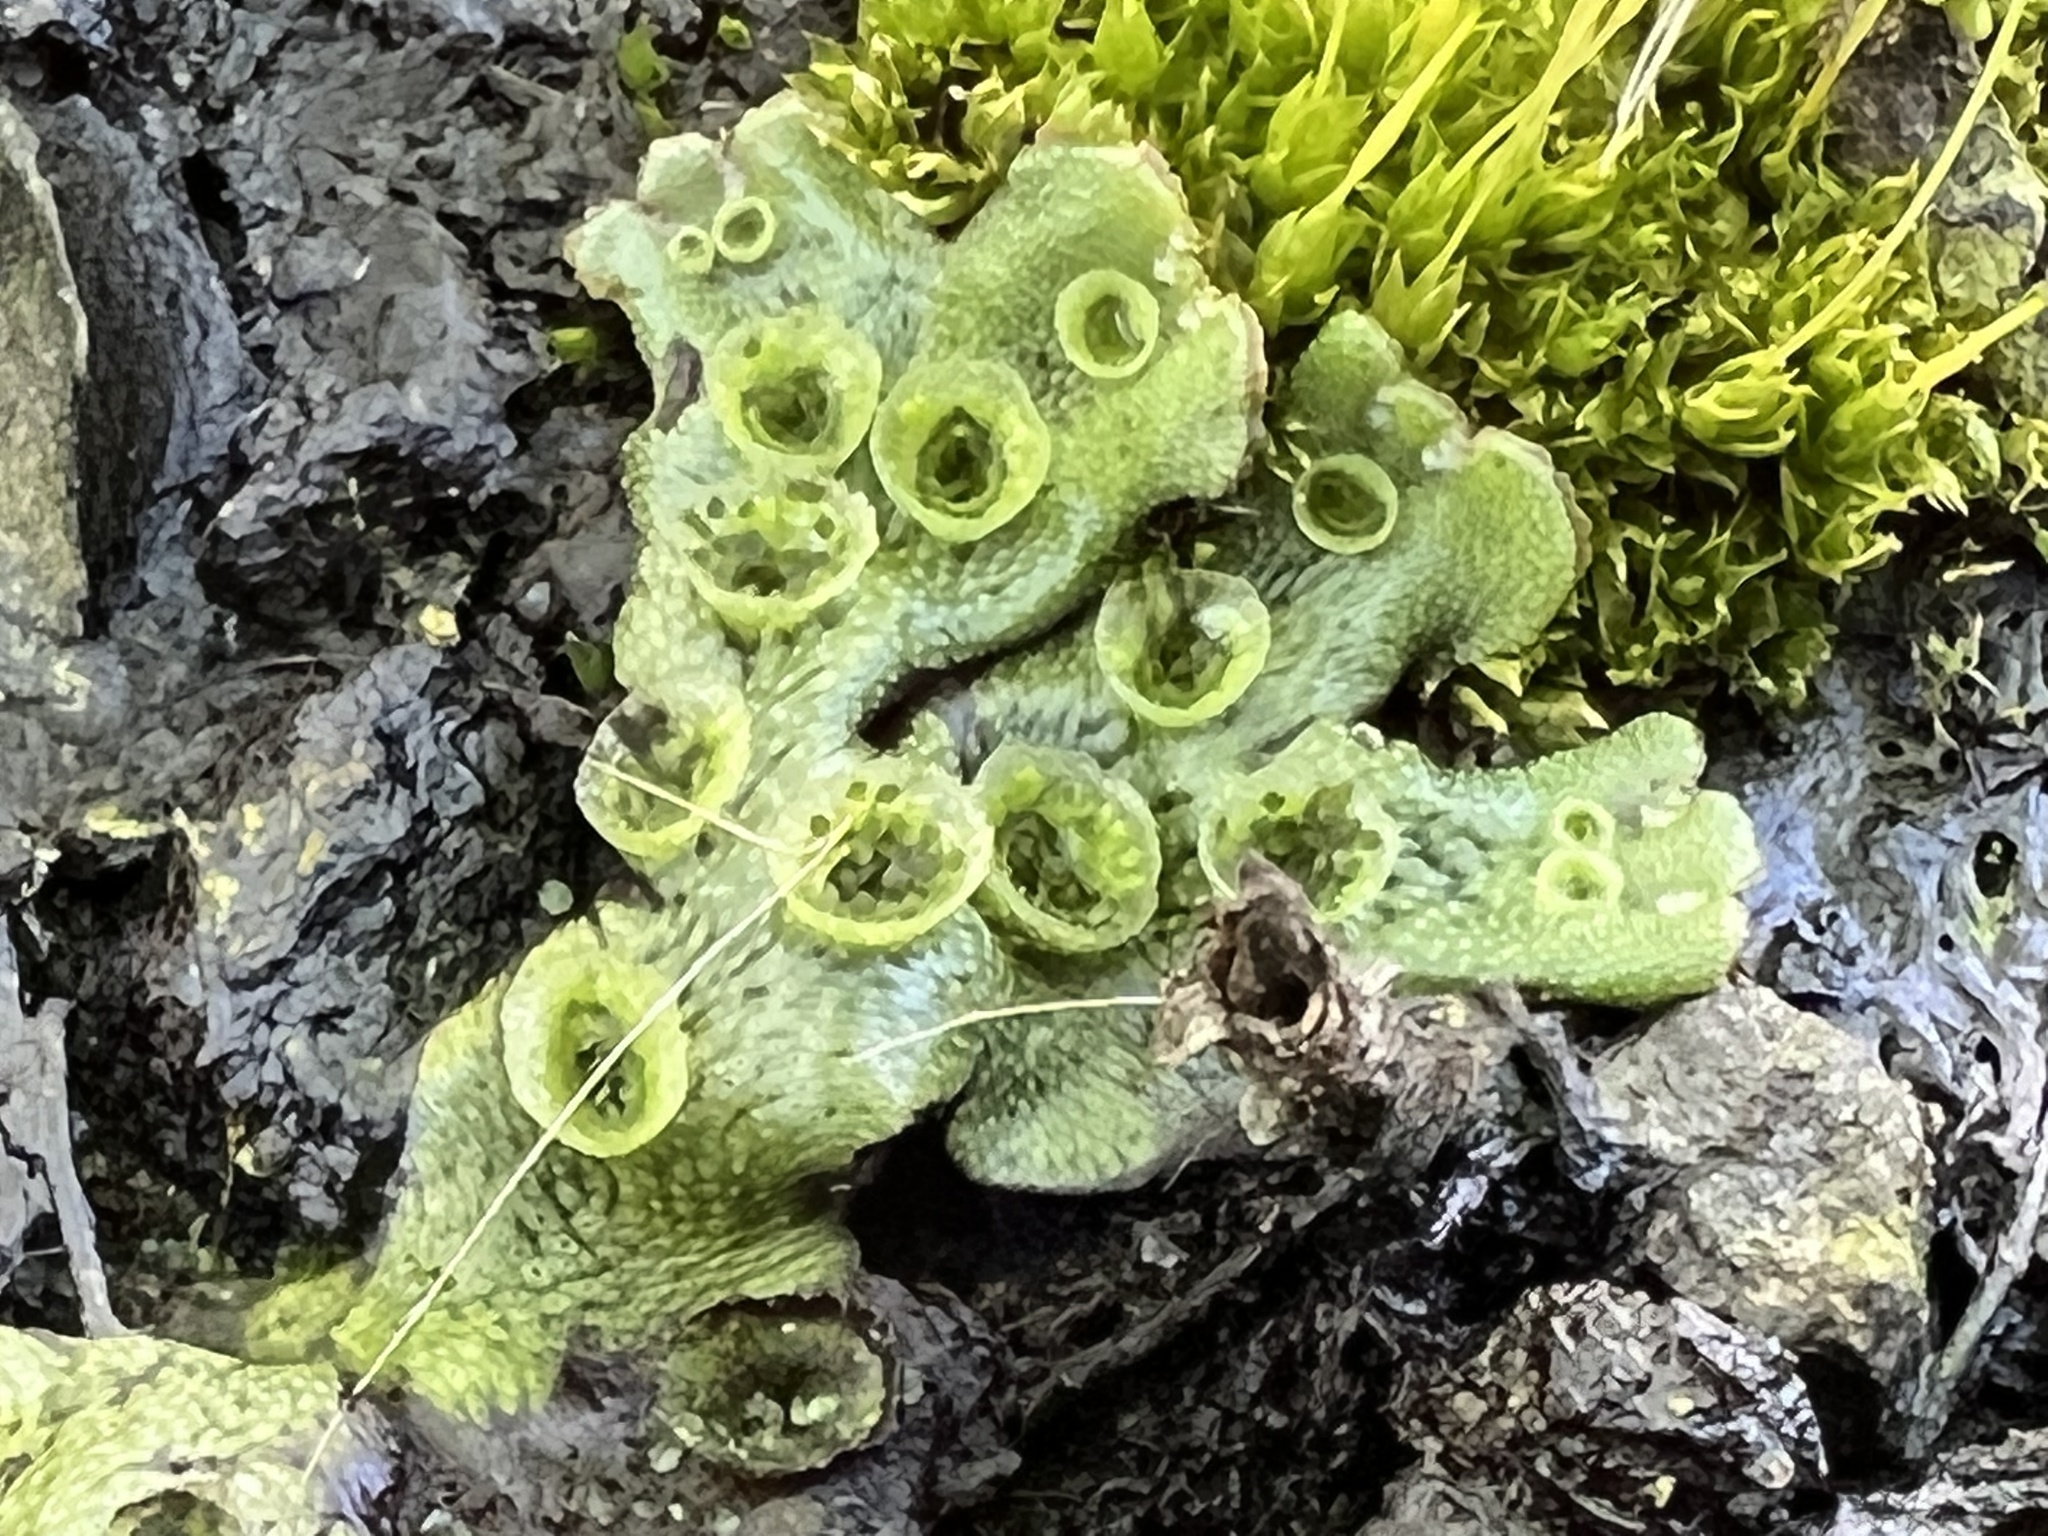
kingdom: Plantae
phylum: Marchantiophyta
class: Marchantiopsida
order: Marchantiales
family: Marchantiaceae
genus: Marchantia
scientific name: Marchantia polymorpha
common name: Common liverwort
